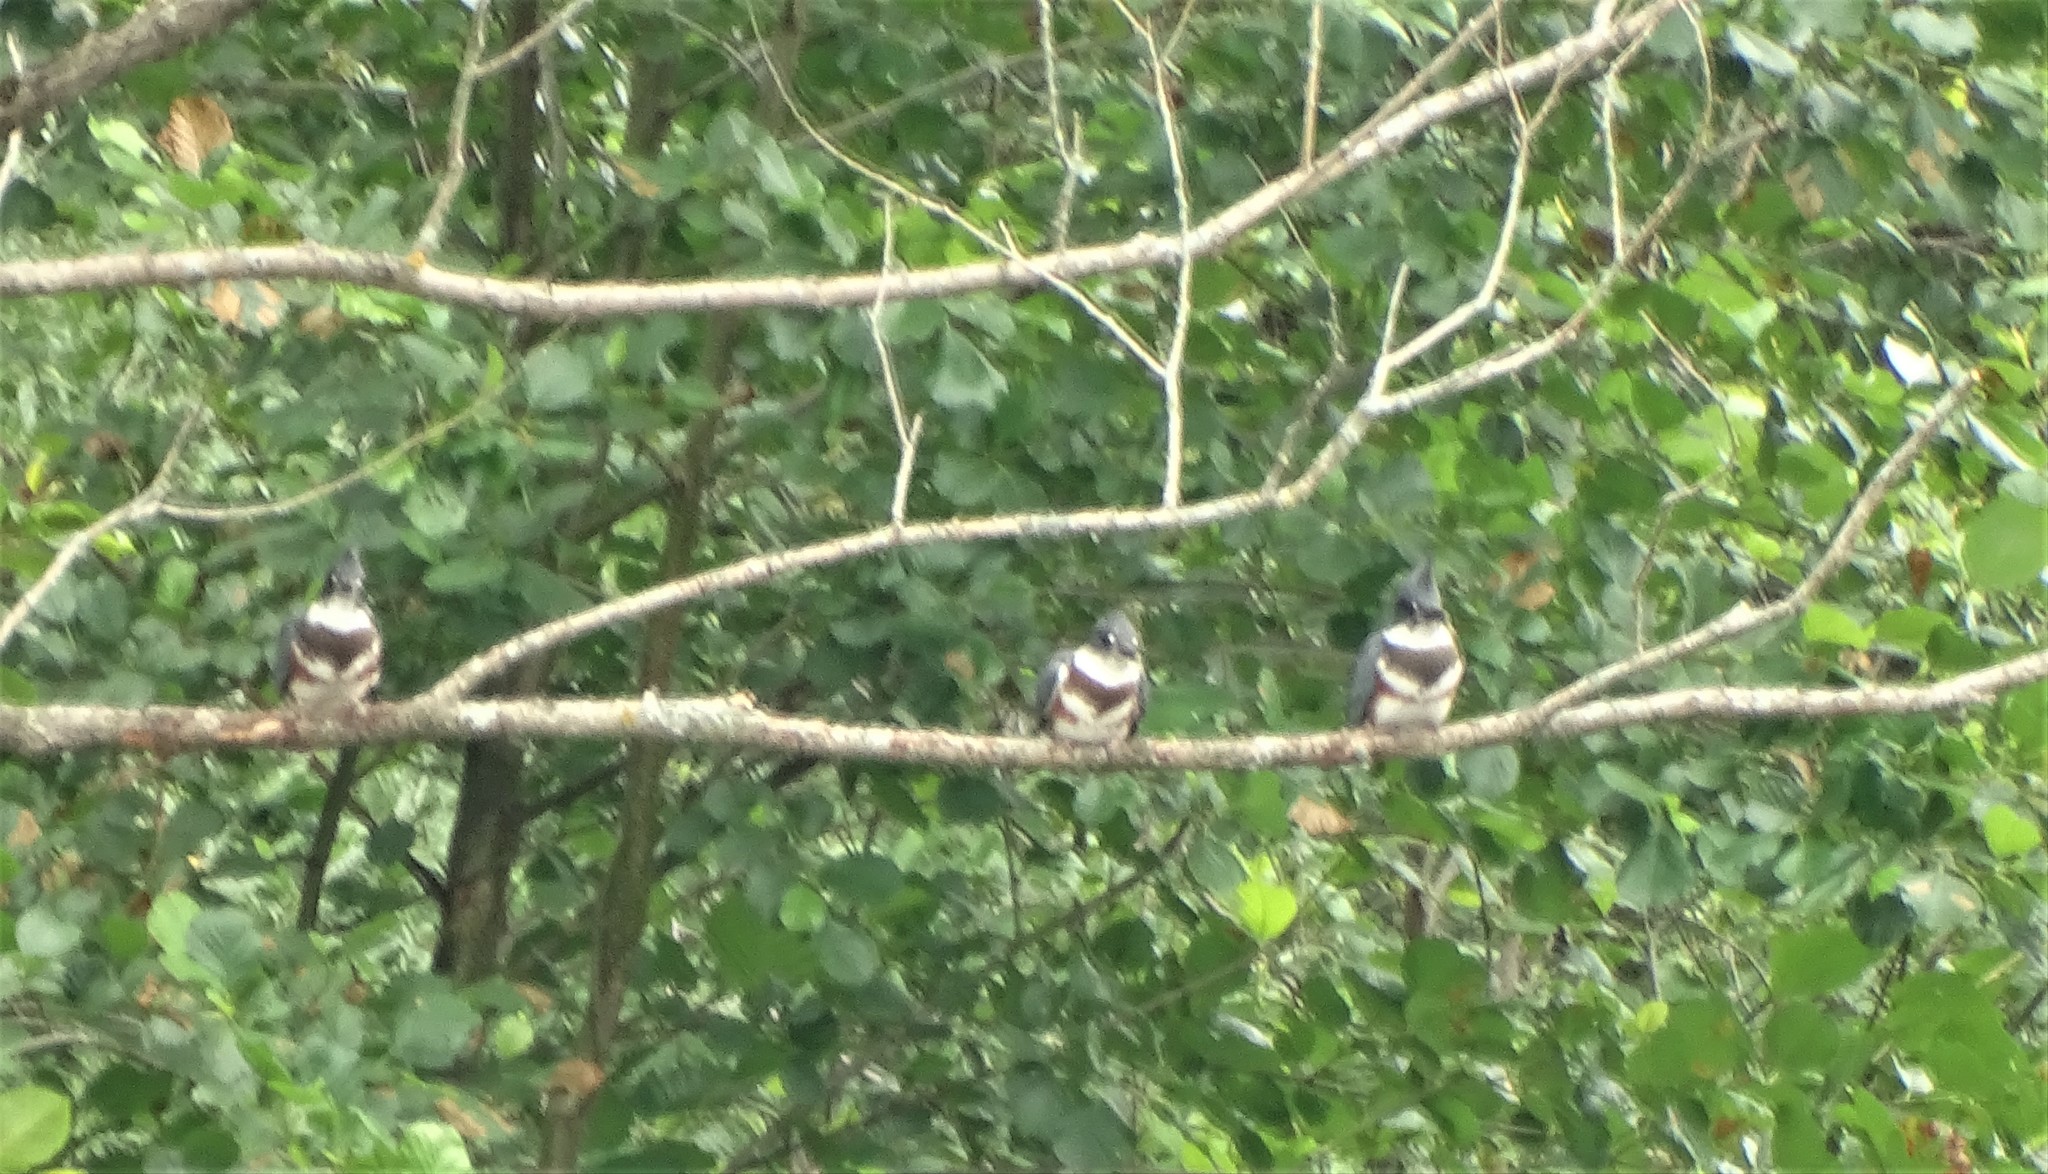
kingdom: Animalia
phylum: Chordata
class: Aves
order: Coraciiformes
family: Alcedinidae
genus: Megaceryle
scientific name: Megaceryle alcyon
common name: Belted kingfisher
